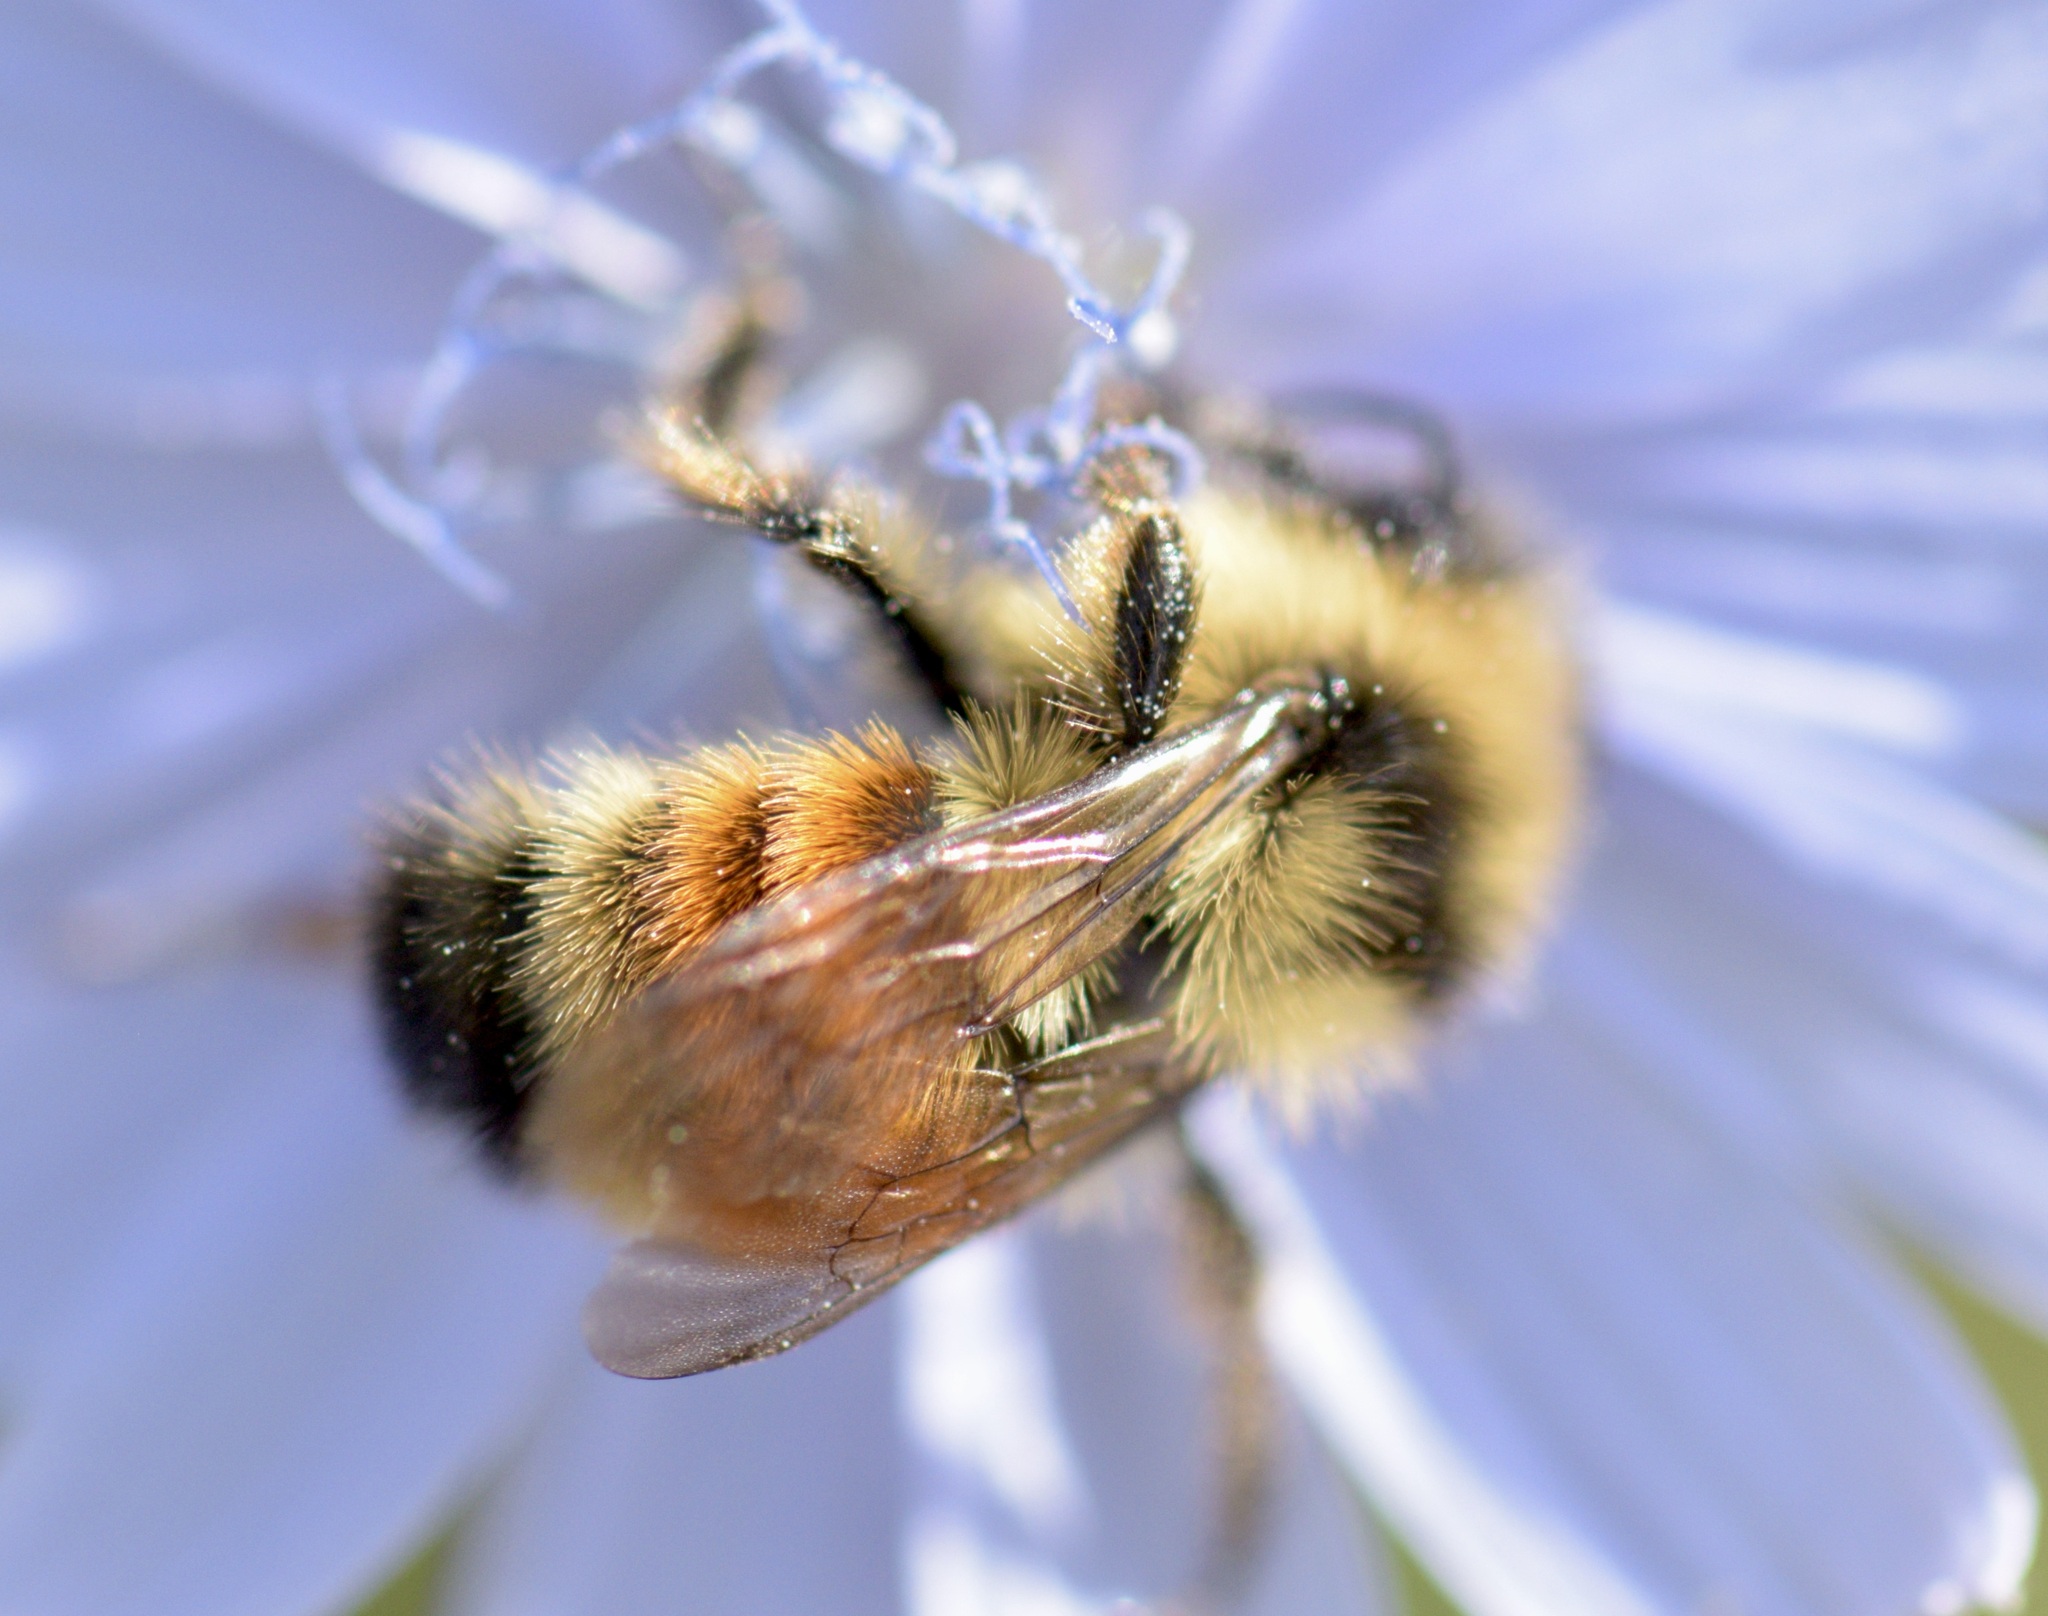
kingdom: Animalia
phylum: Arthropoda
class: Insecta
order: Hymenoptera
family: Apidae
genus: Bombus
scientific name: Bombus ternarius
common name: Tri-colored bumble bee
